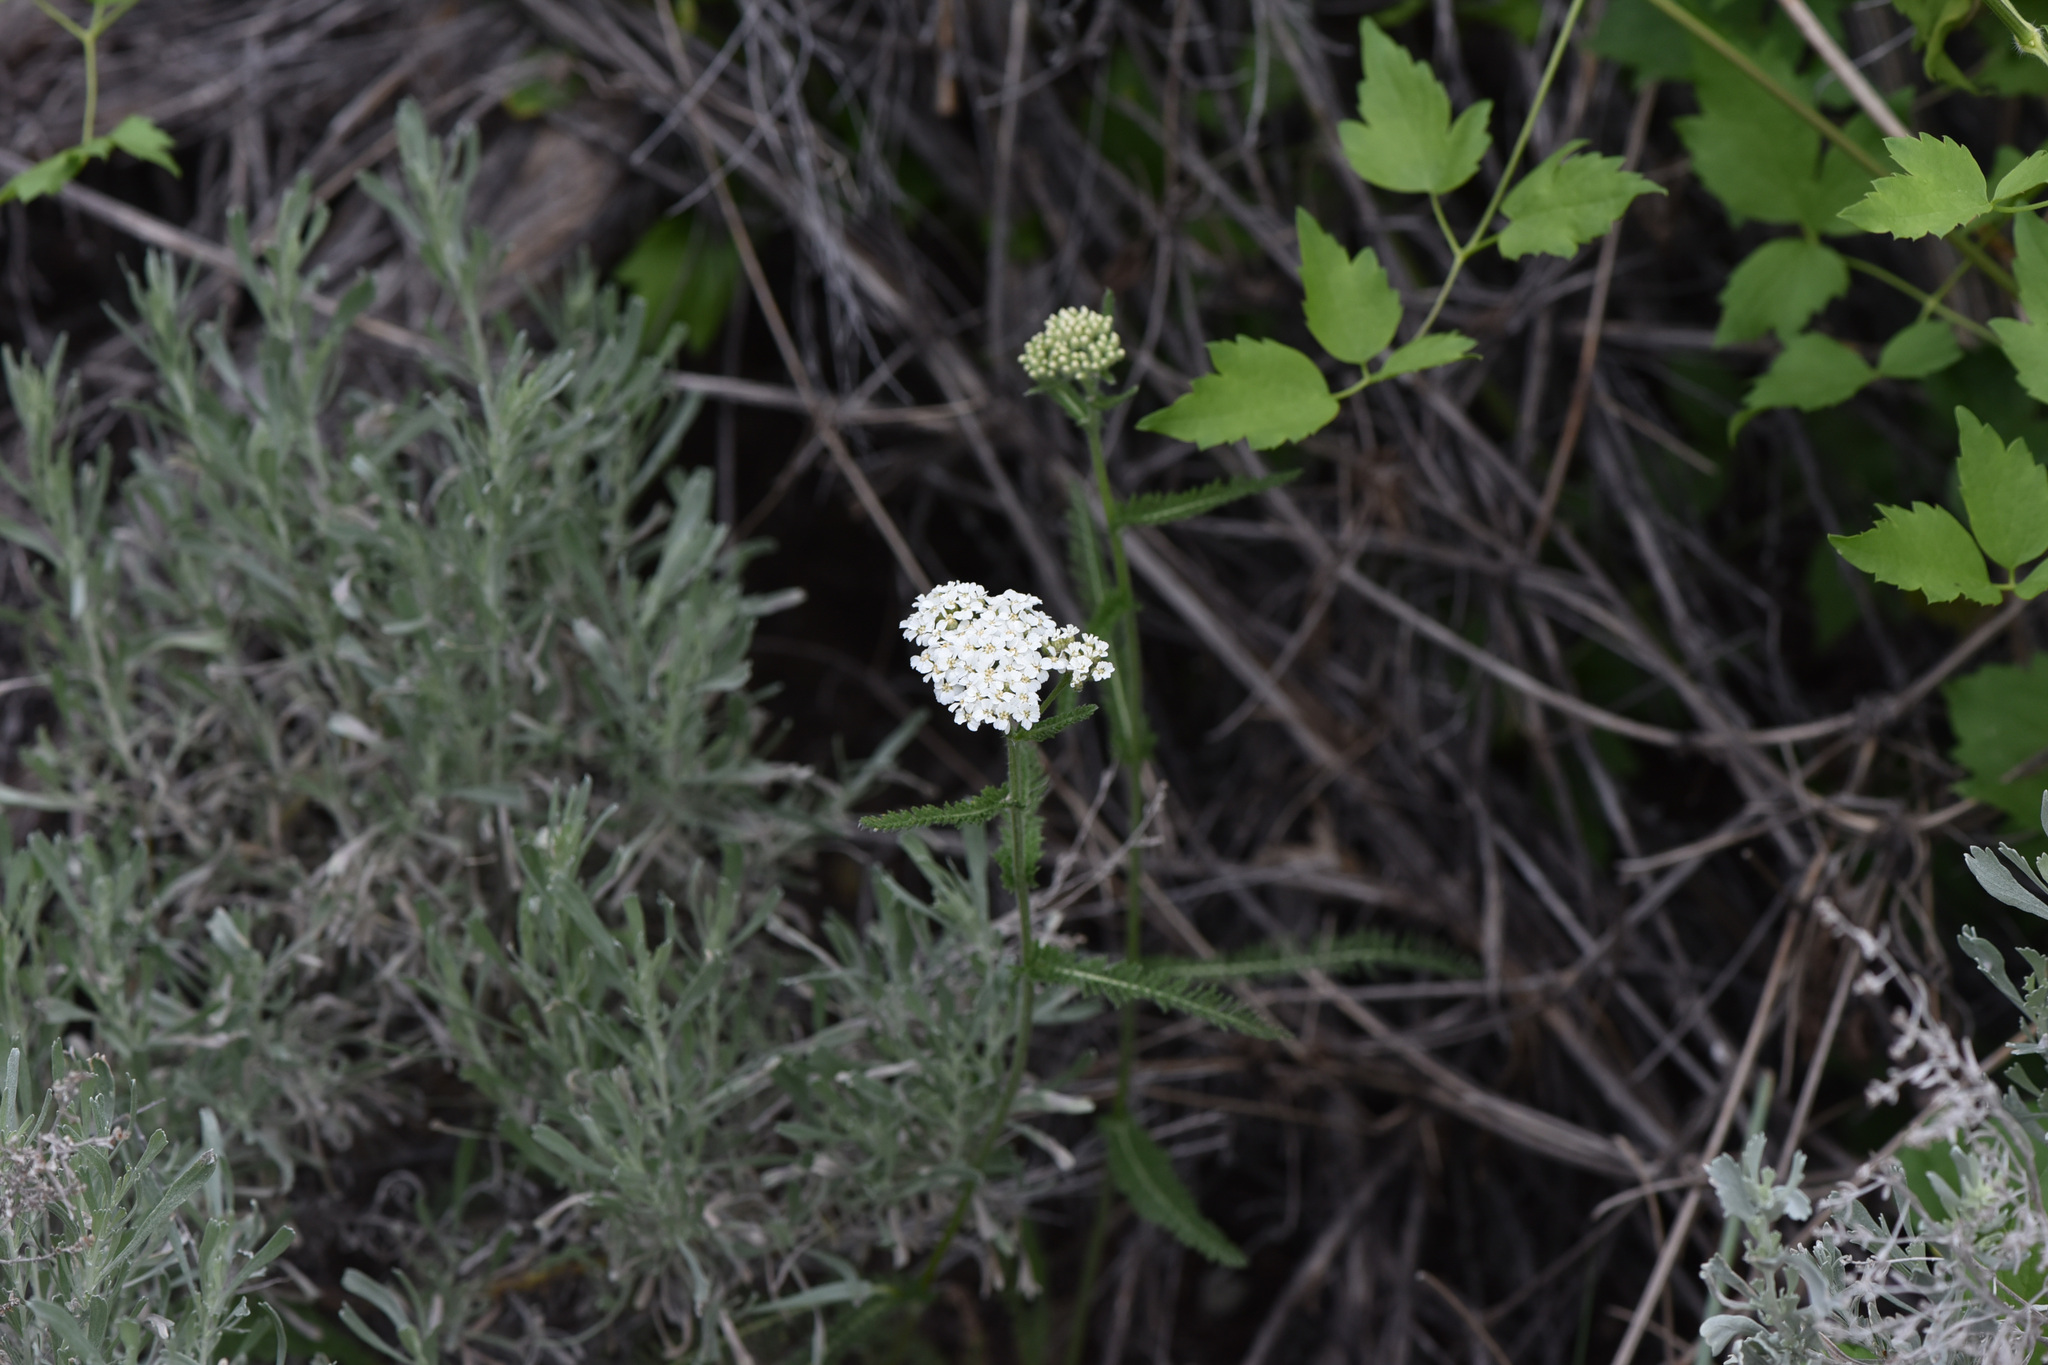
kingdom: Plantae
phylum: Tracheophyta
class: Magnoliopsida
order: Asterales
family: Asteraceae
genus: Achillea
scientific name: Achillea millefolium
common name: Yarrow
